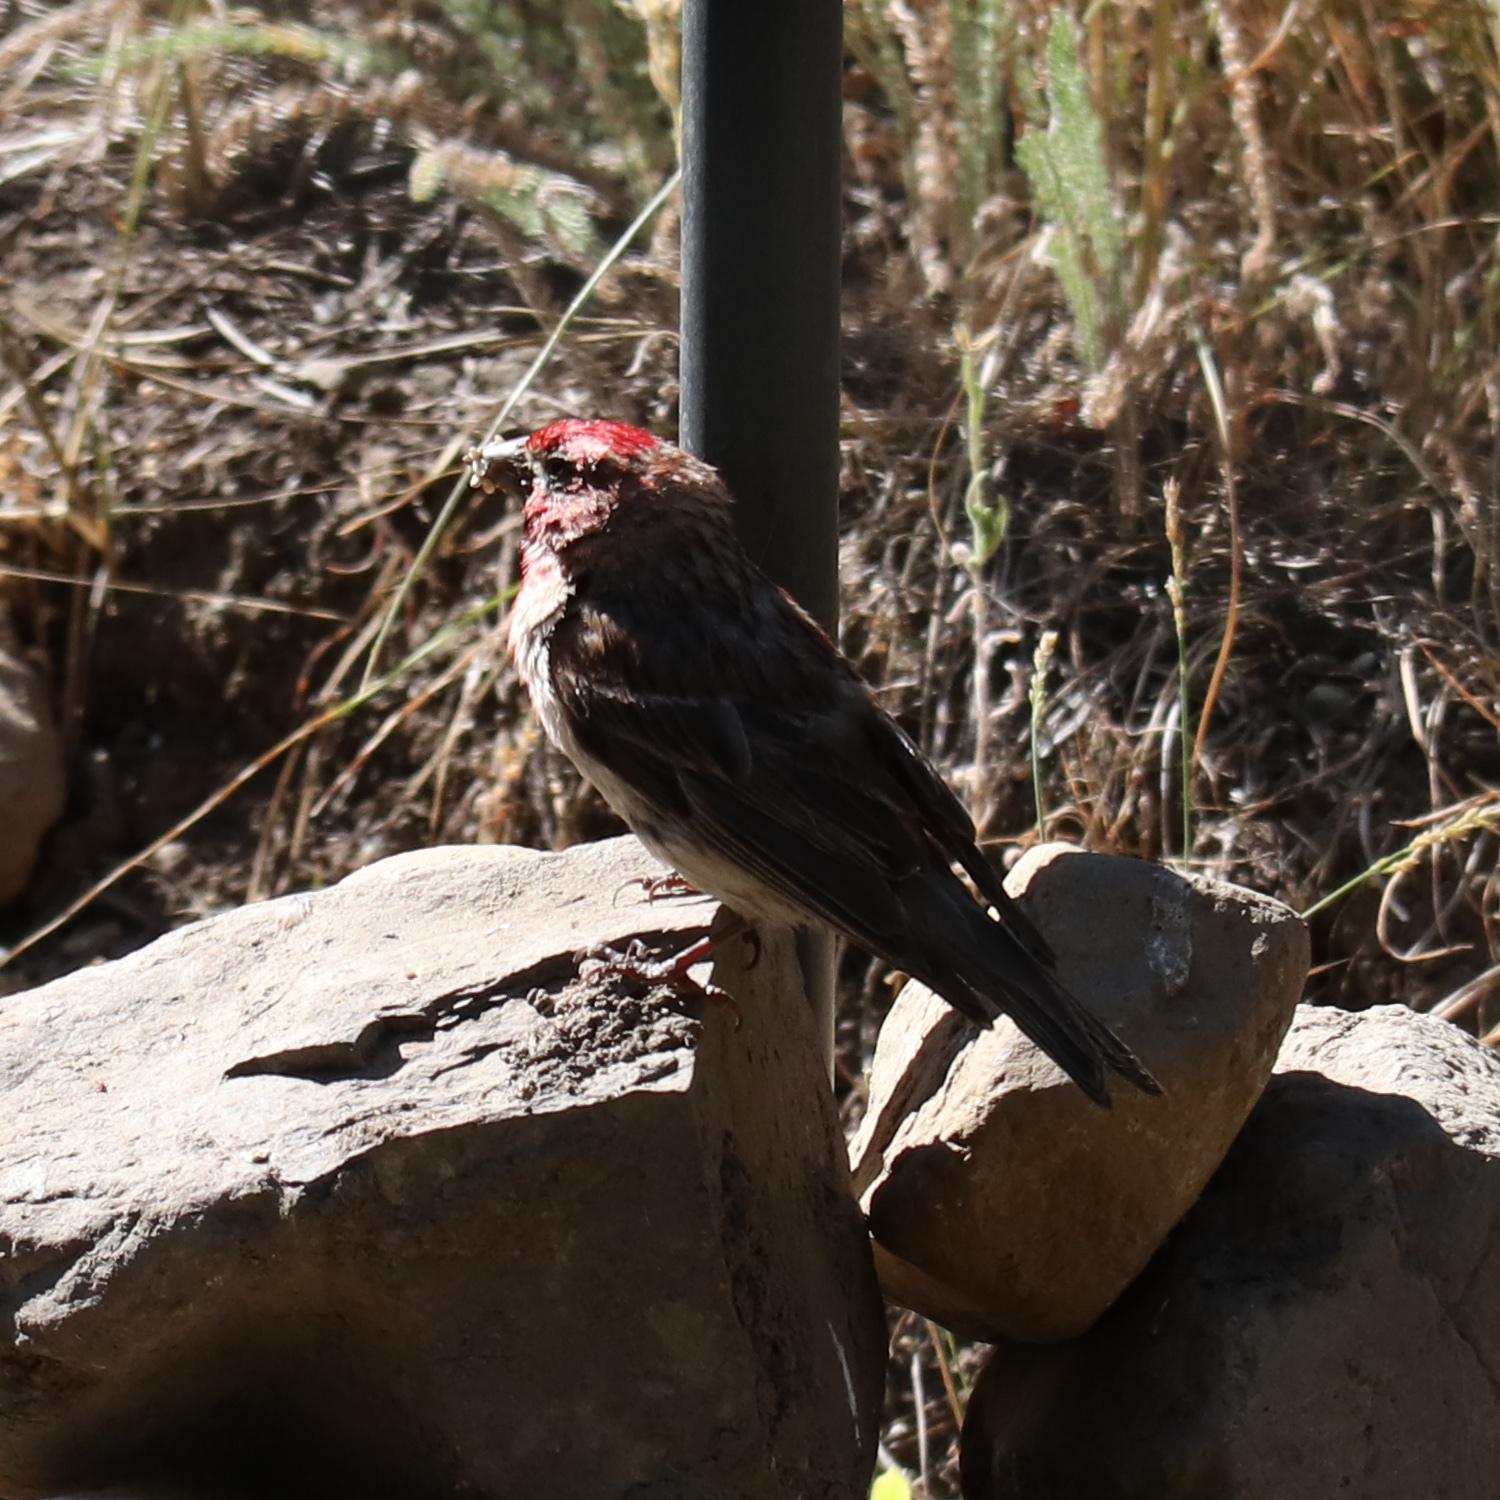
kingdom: Animalia
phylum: Chordata
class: Aves
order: Passeriformes
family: Fringillidae
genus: Haemorhous
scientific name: Haemorhous mexicanus
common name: House finch
